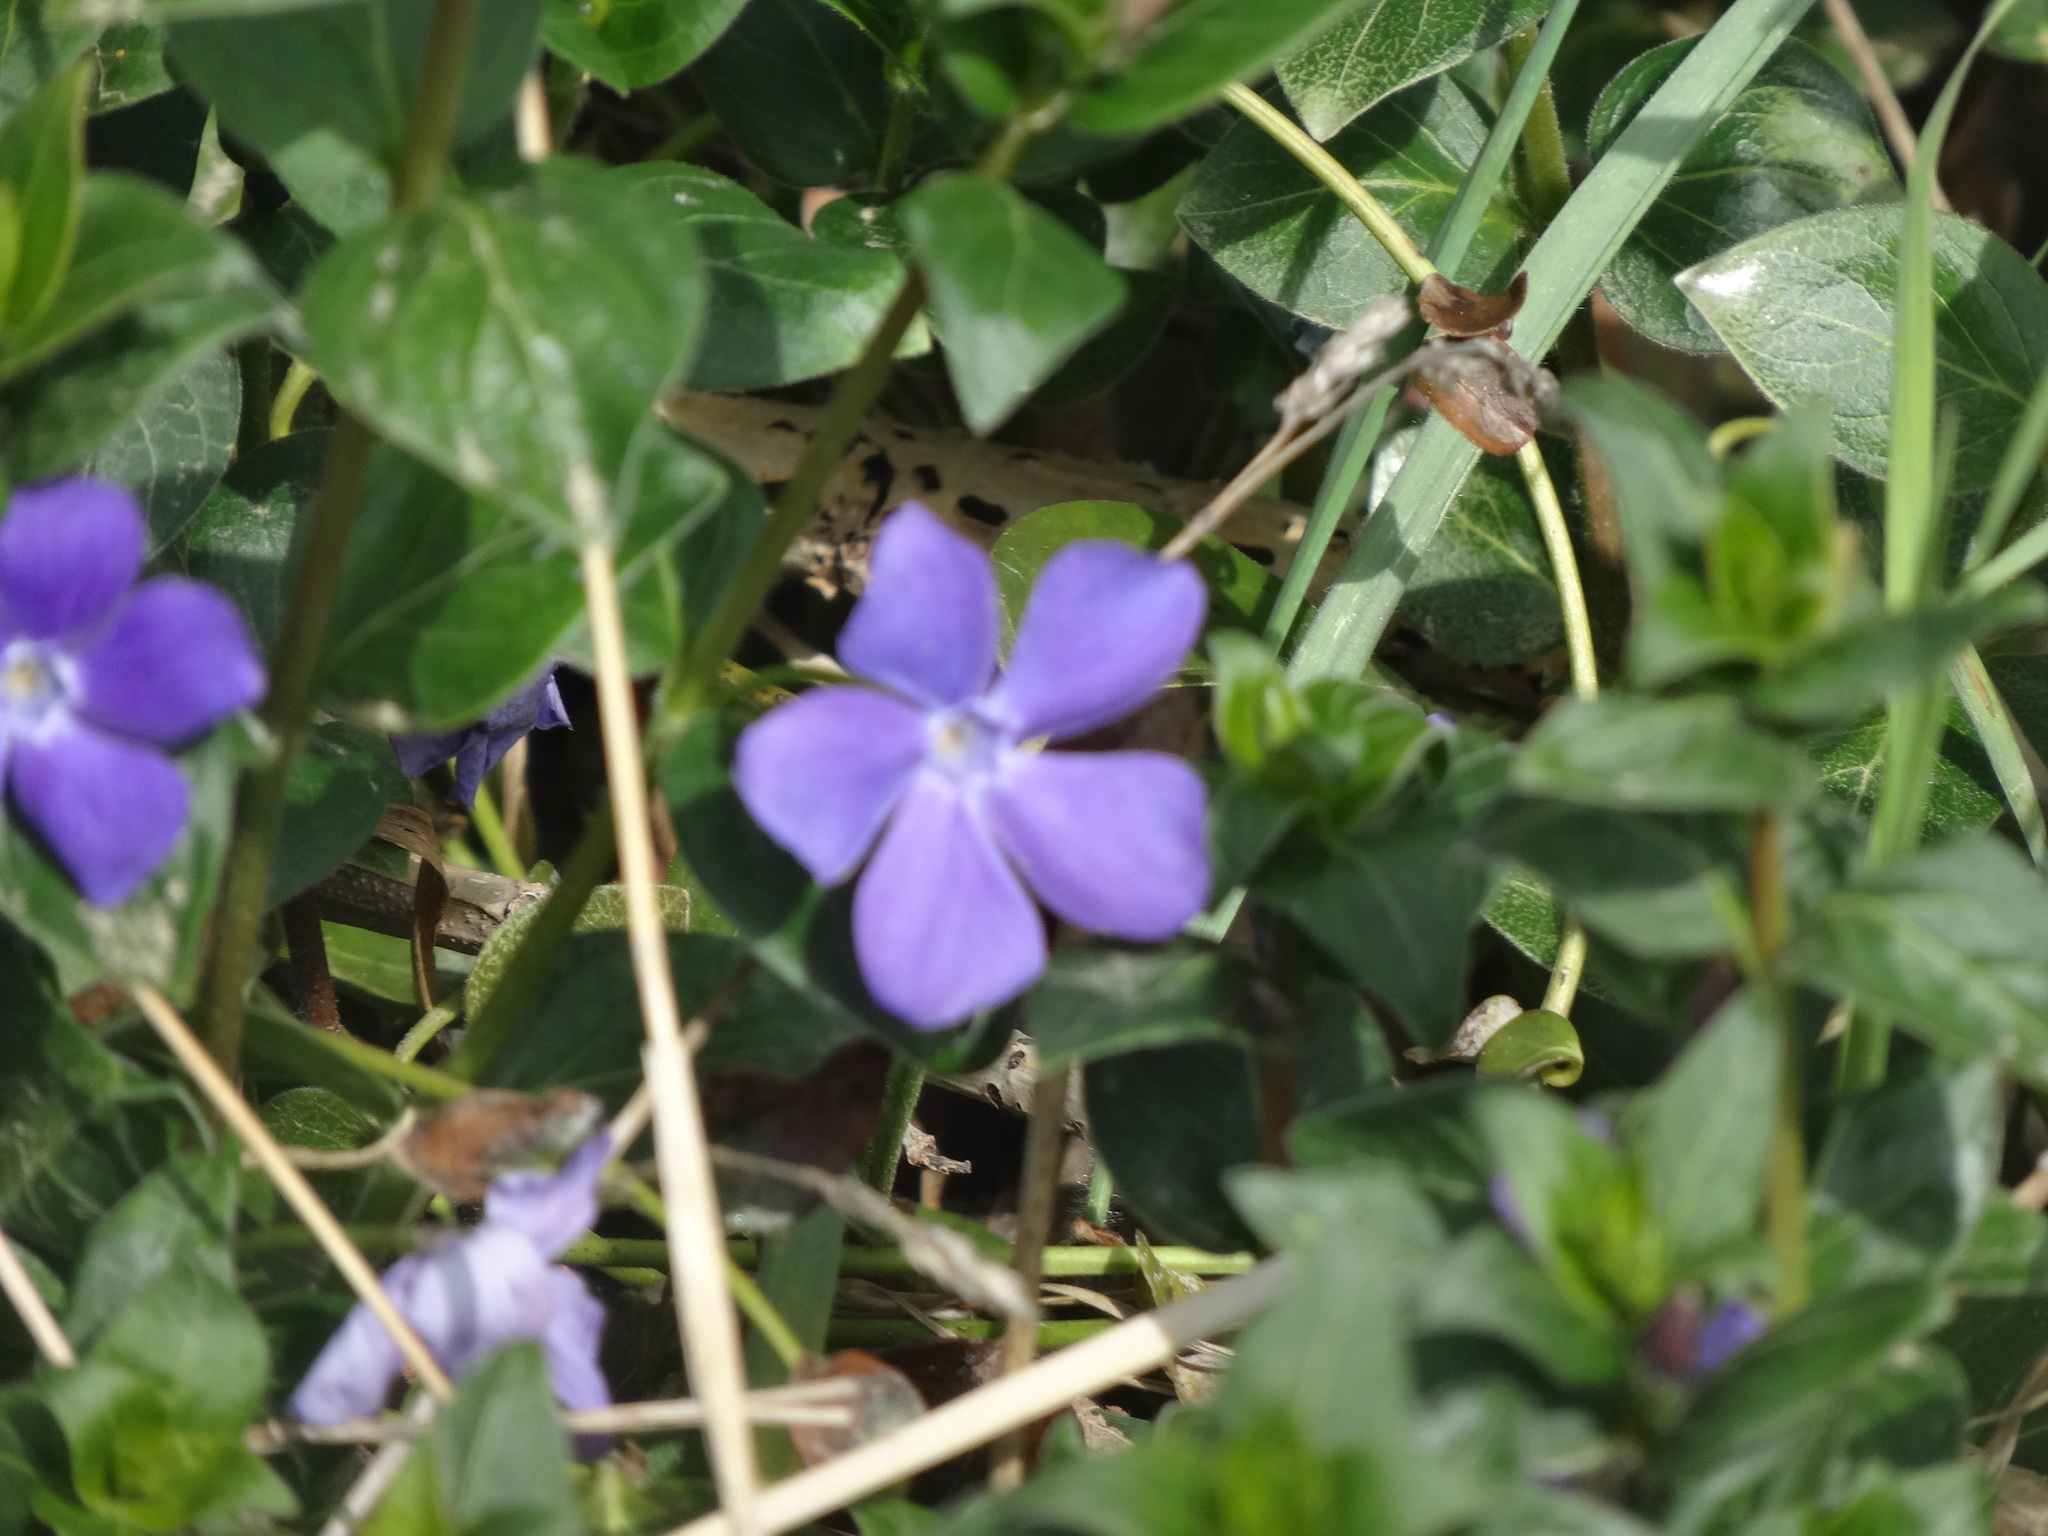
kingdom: Plantae
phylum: Tracheophyta
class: Magnoliopsida
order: Gentianales
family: Apocynaceae
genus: Vinca
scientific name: Vinca major
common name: Greater periwinkle
